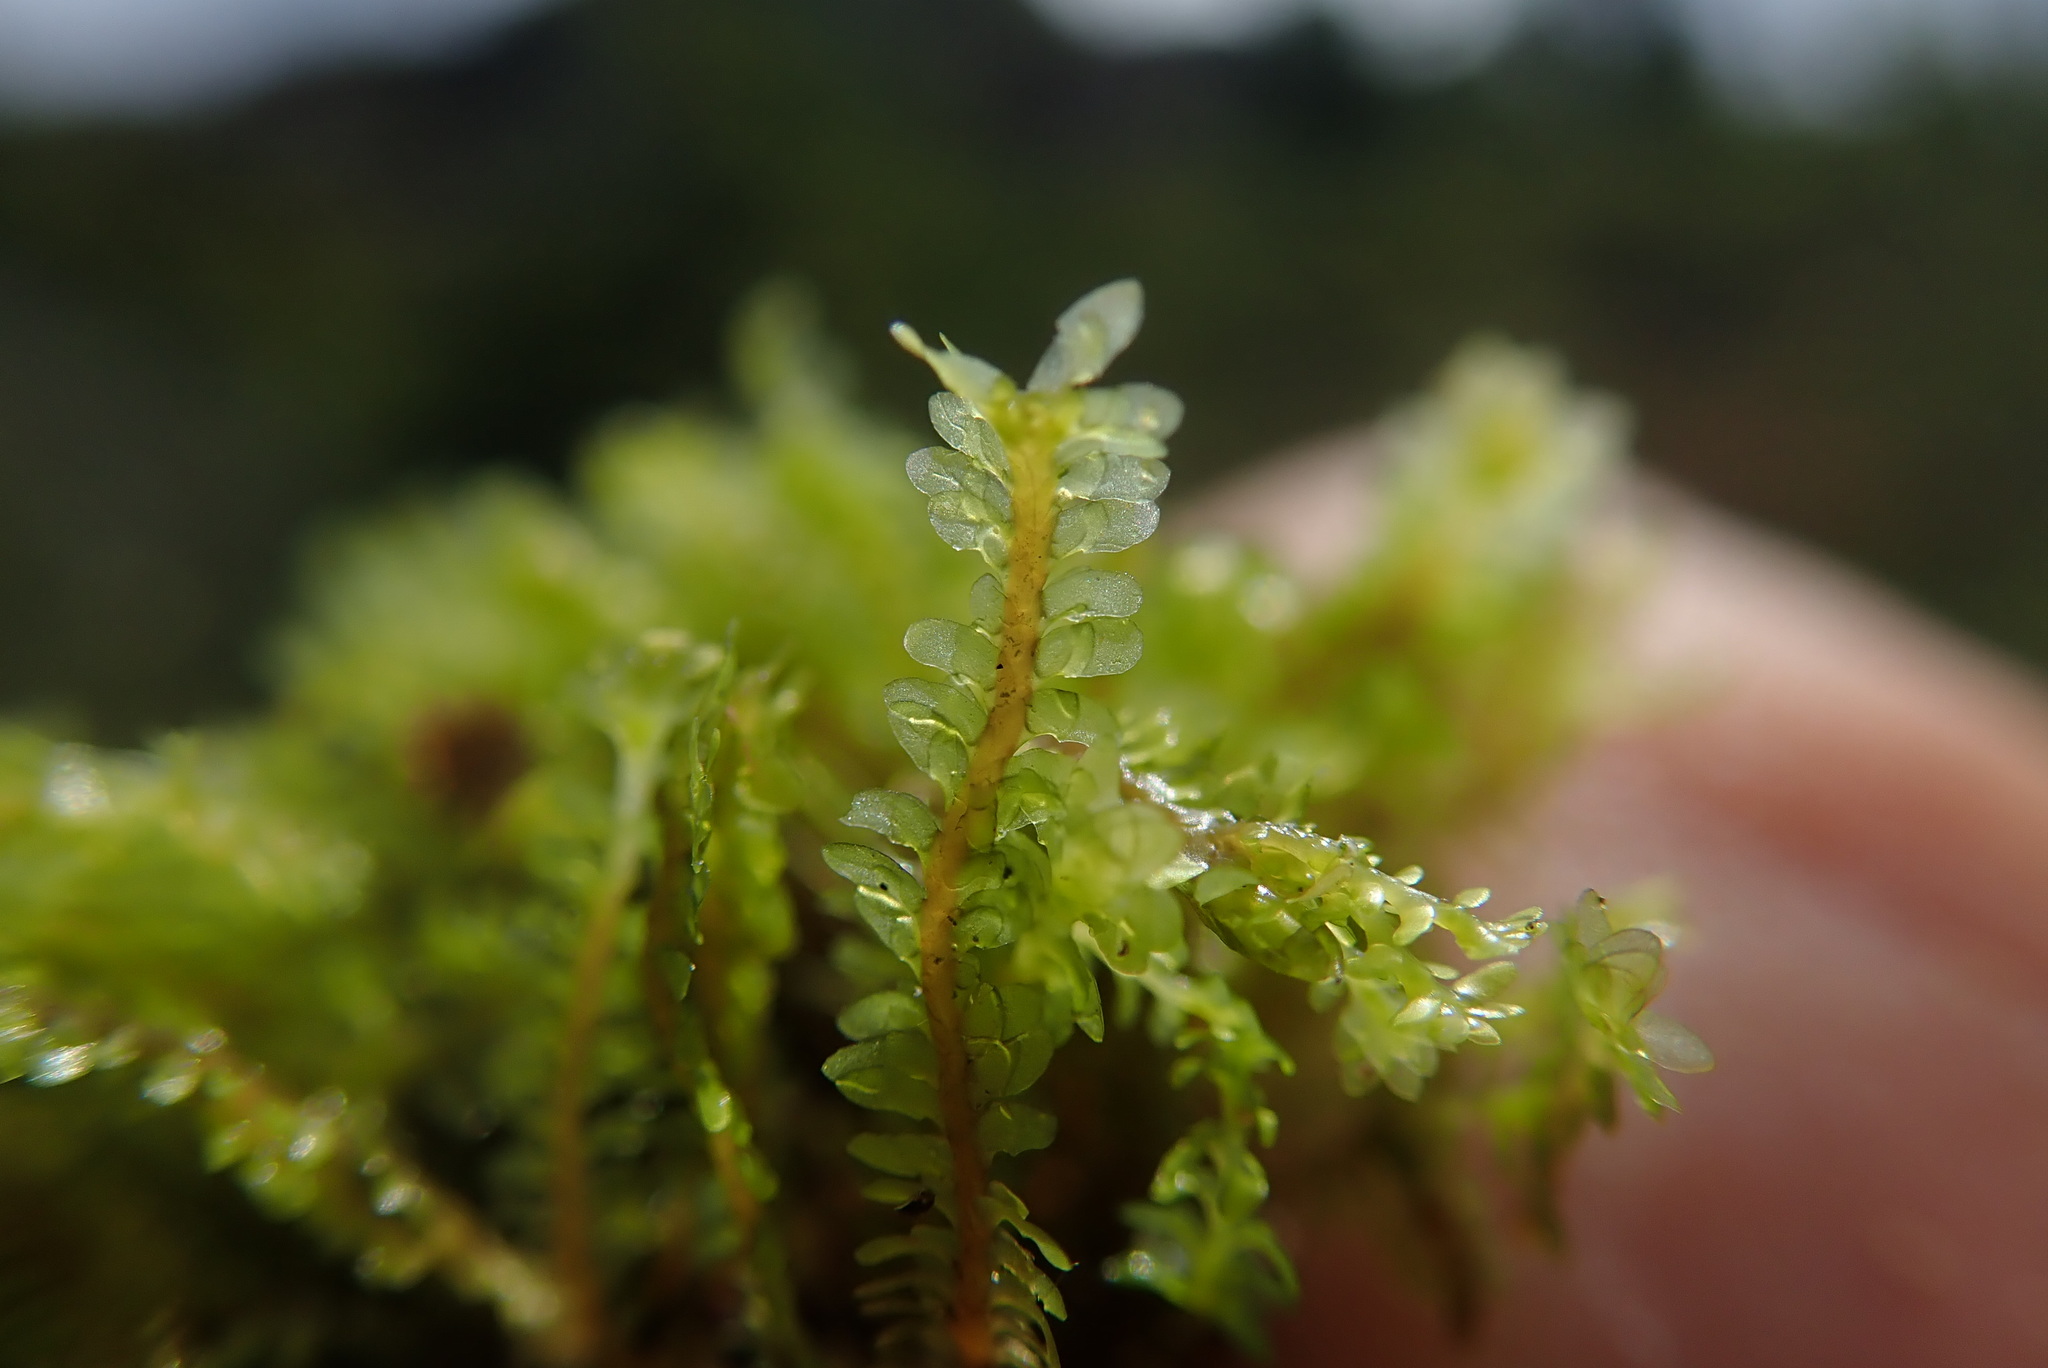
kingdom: Plantae
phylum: Marchantiophyta
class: Jungermanniopsida
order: Jungermanniales
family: Scapaniaceae
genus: Diplophyllum
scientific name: Diplophyllum taxifolium
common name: Alpine earwort
